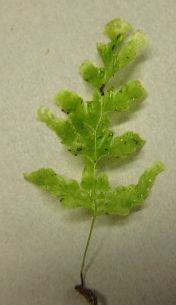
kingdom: Plantae
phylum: Tracheophyta
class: Polypodiopsida
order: Hymenophyllales
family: Hymenophyllaceae
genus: Polyphlebium
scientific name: Polyphlebium venosum
